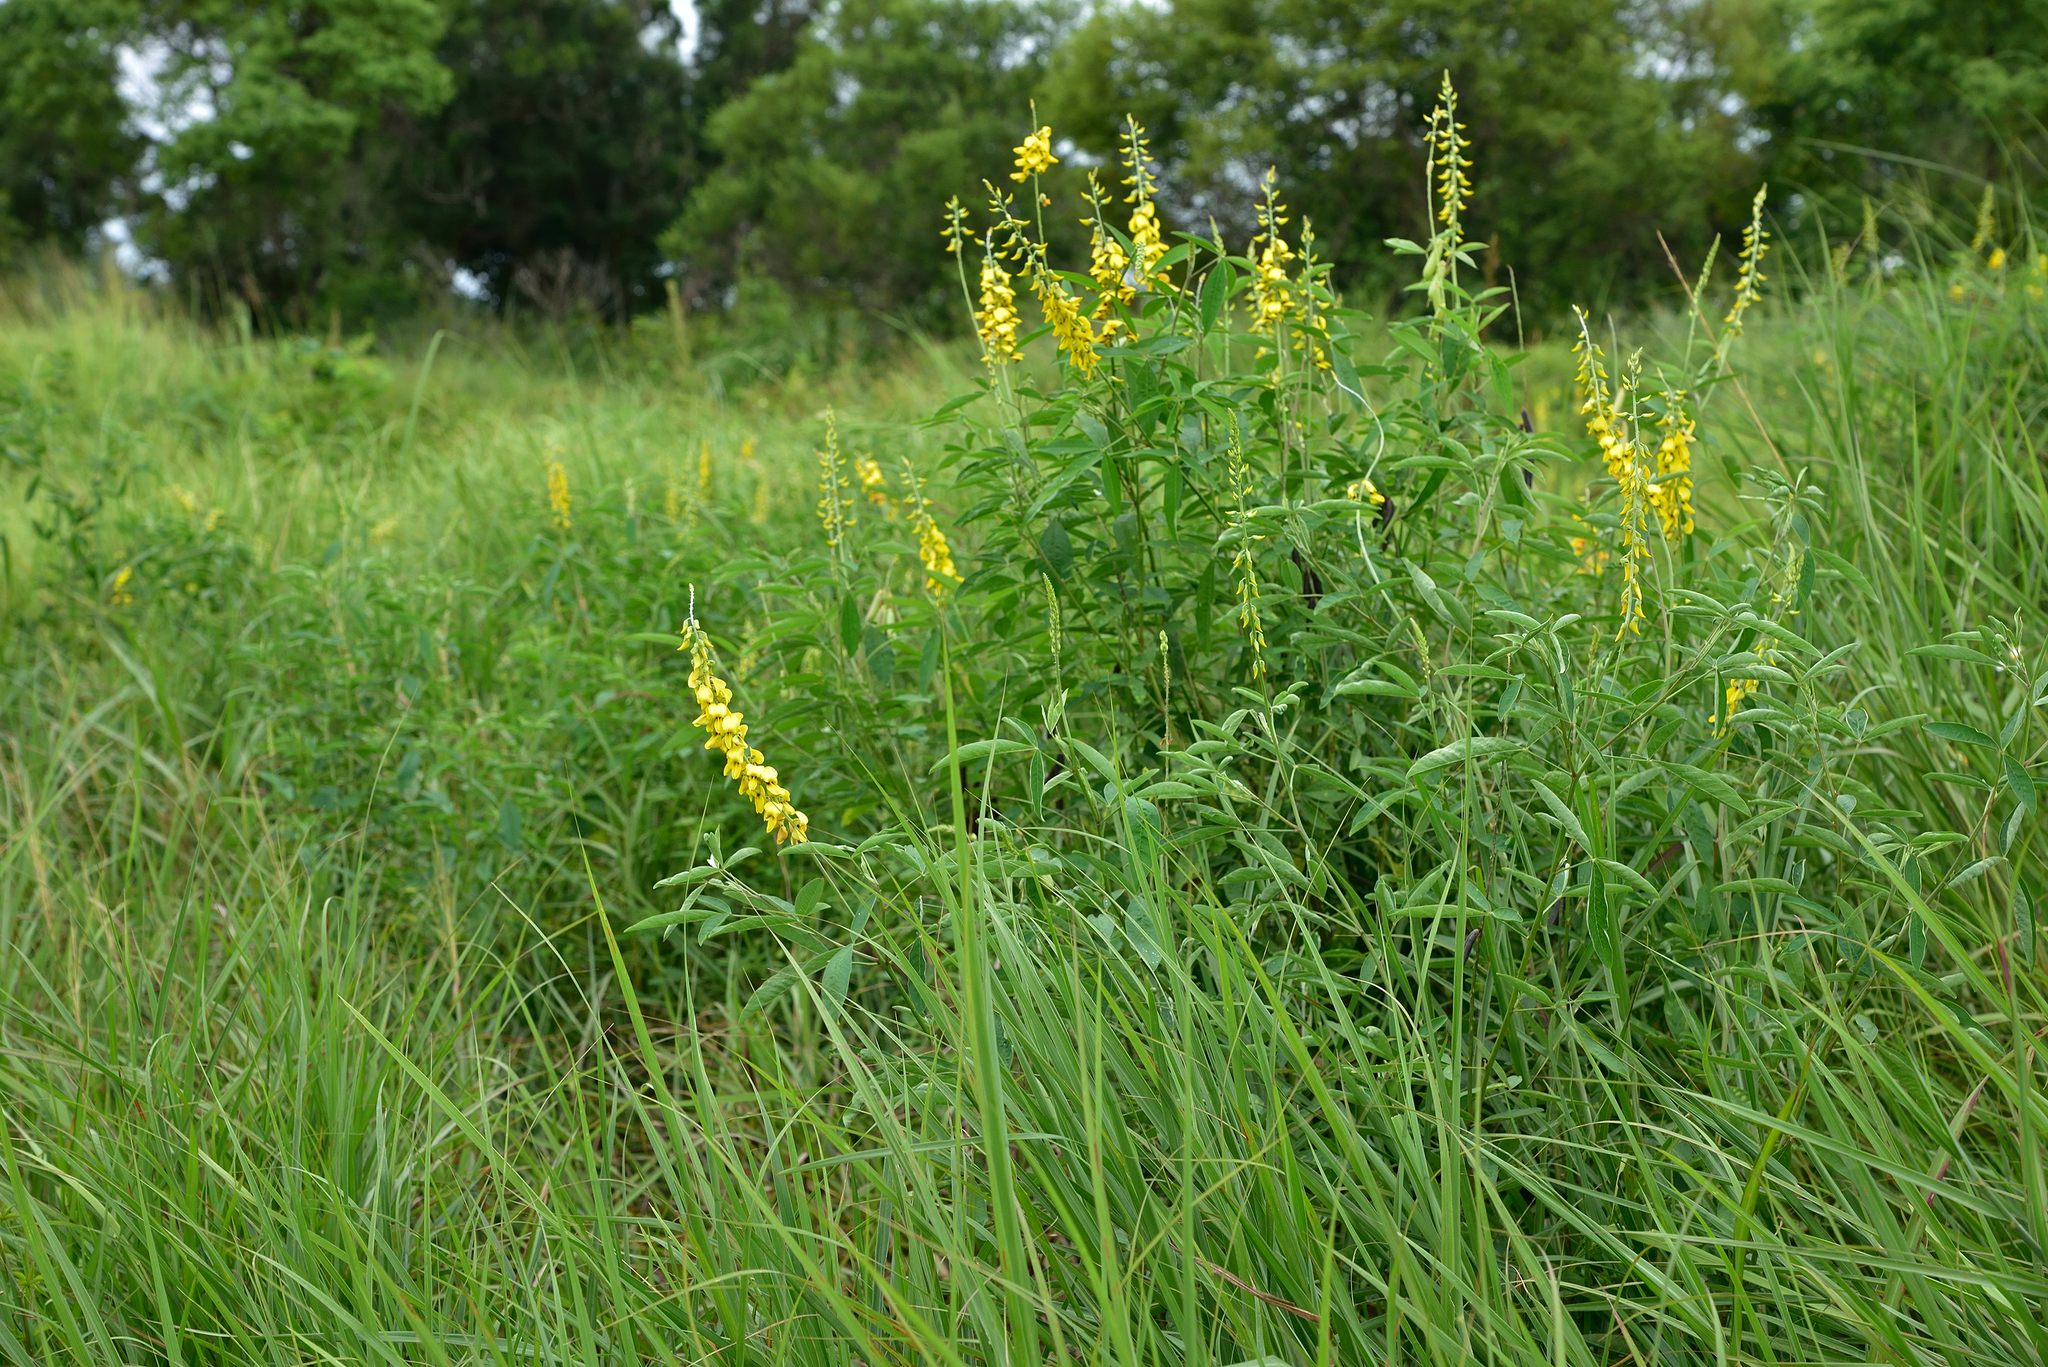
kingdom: Plantae
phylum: Tracheophyta
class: Magnoliopsida
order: Fabales
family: Fabaceae
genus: Crotalaria
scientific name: Crotalaria trichotoma
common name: West indian rattlebox
